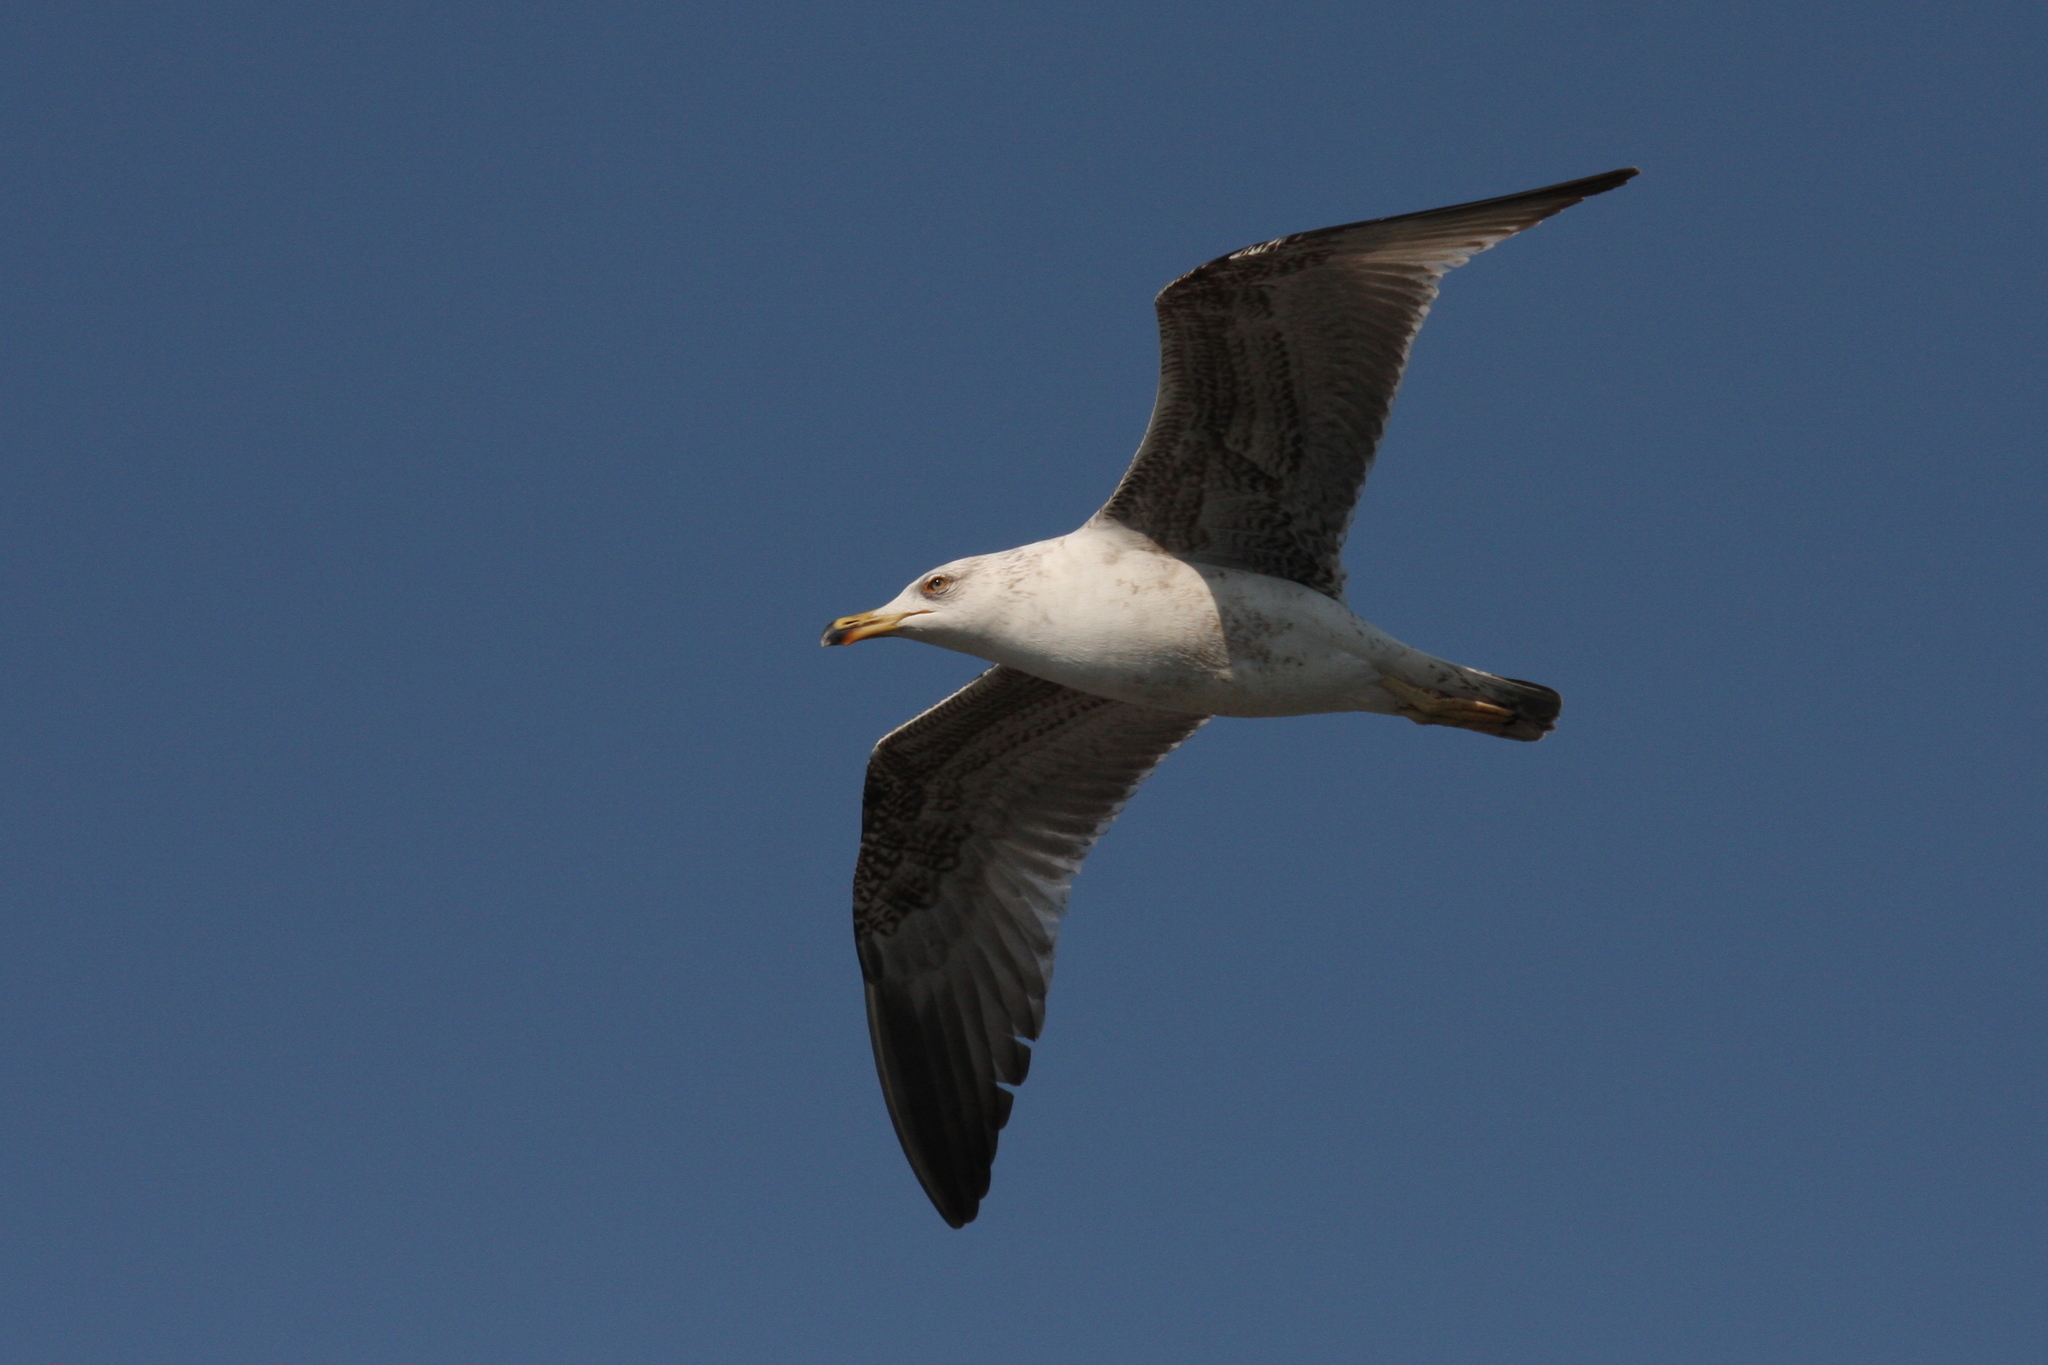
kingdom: Animalia
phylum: Chordata
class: Aves
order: Charadriiformes
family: Laridae
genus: Larus
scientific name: Larus michahellis
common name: Yellow-legged gull
